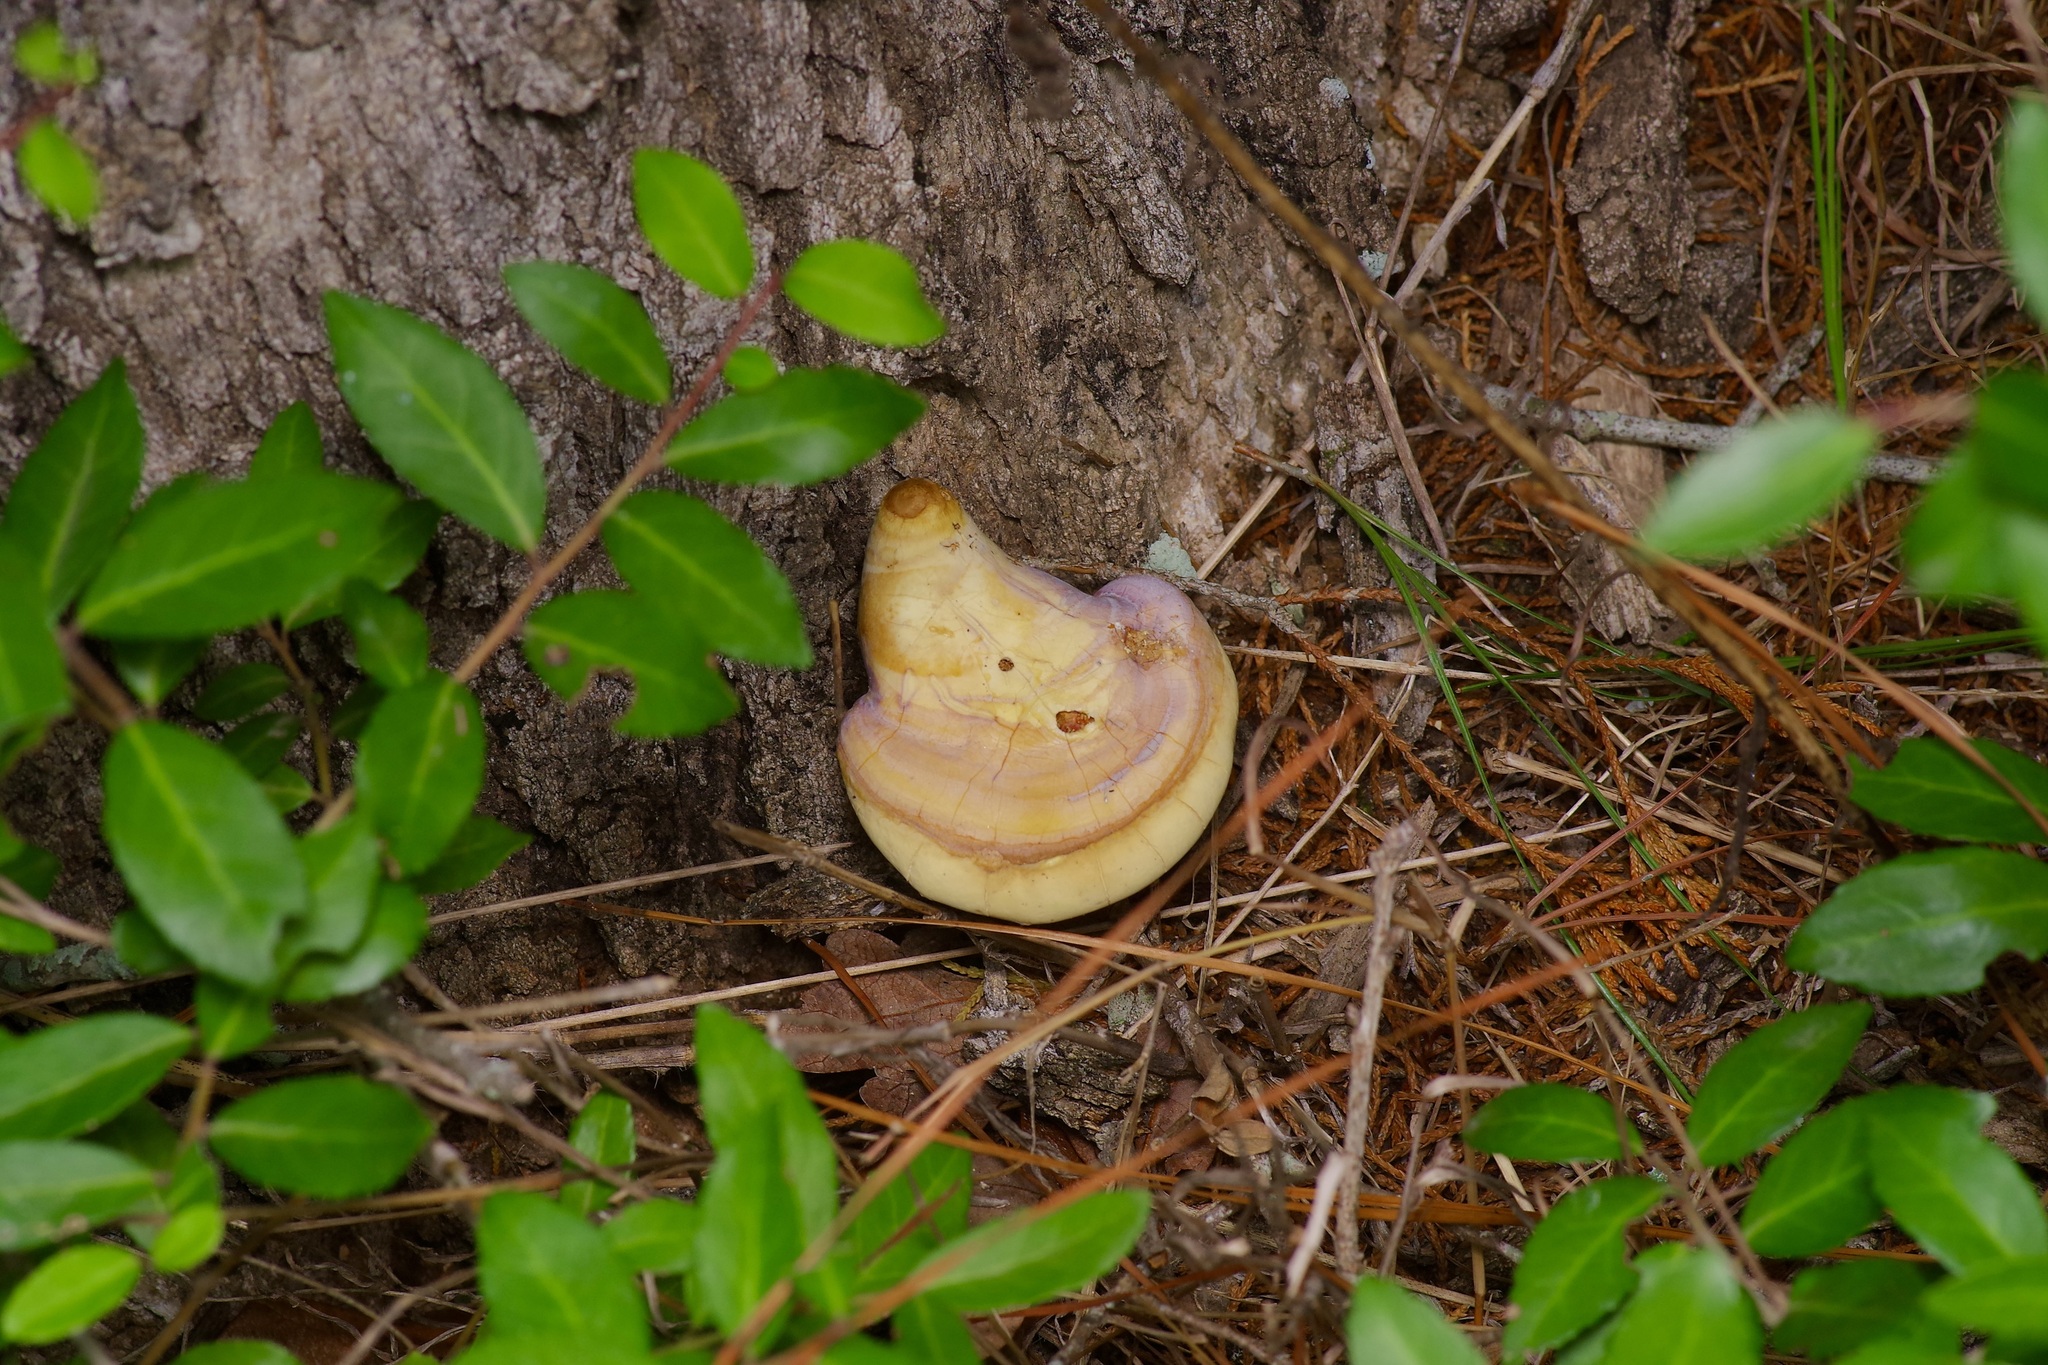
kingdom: Fungi
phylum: Basidiomycota
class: Agaricomycetes
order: Polyporales
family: Polyporaceae
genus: Ganoderma
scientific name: Ganoderma curtisii
